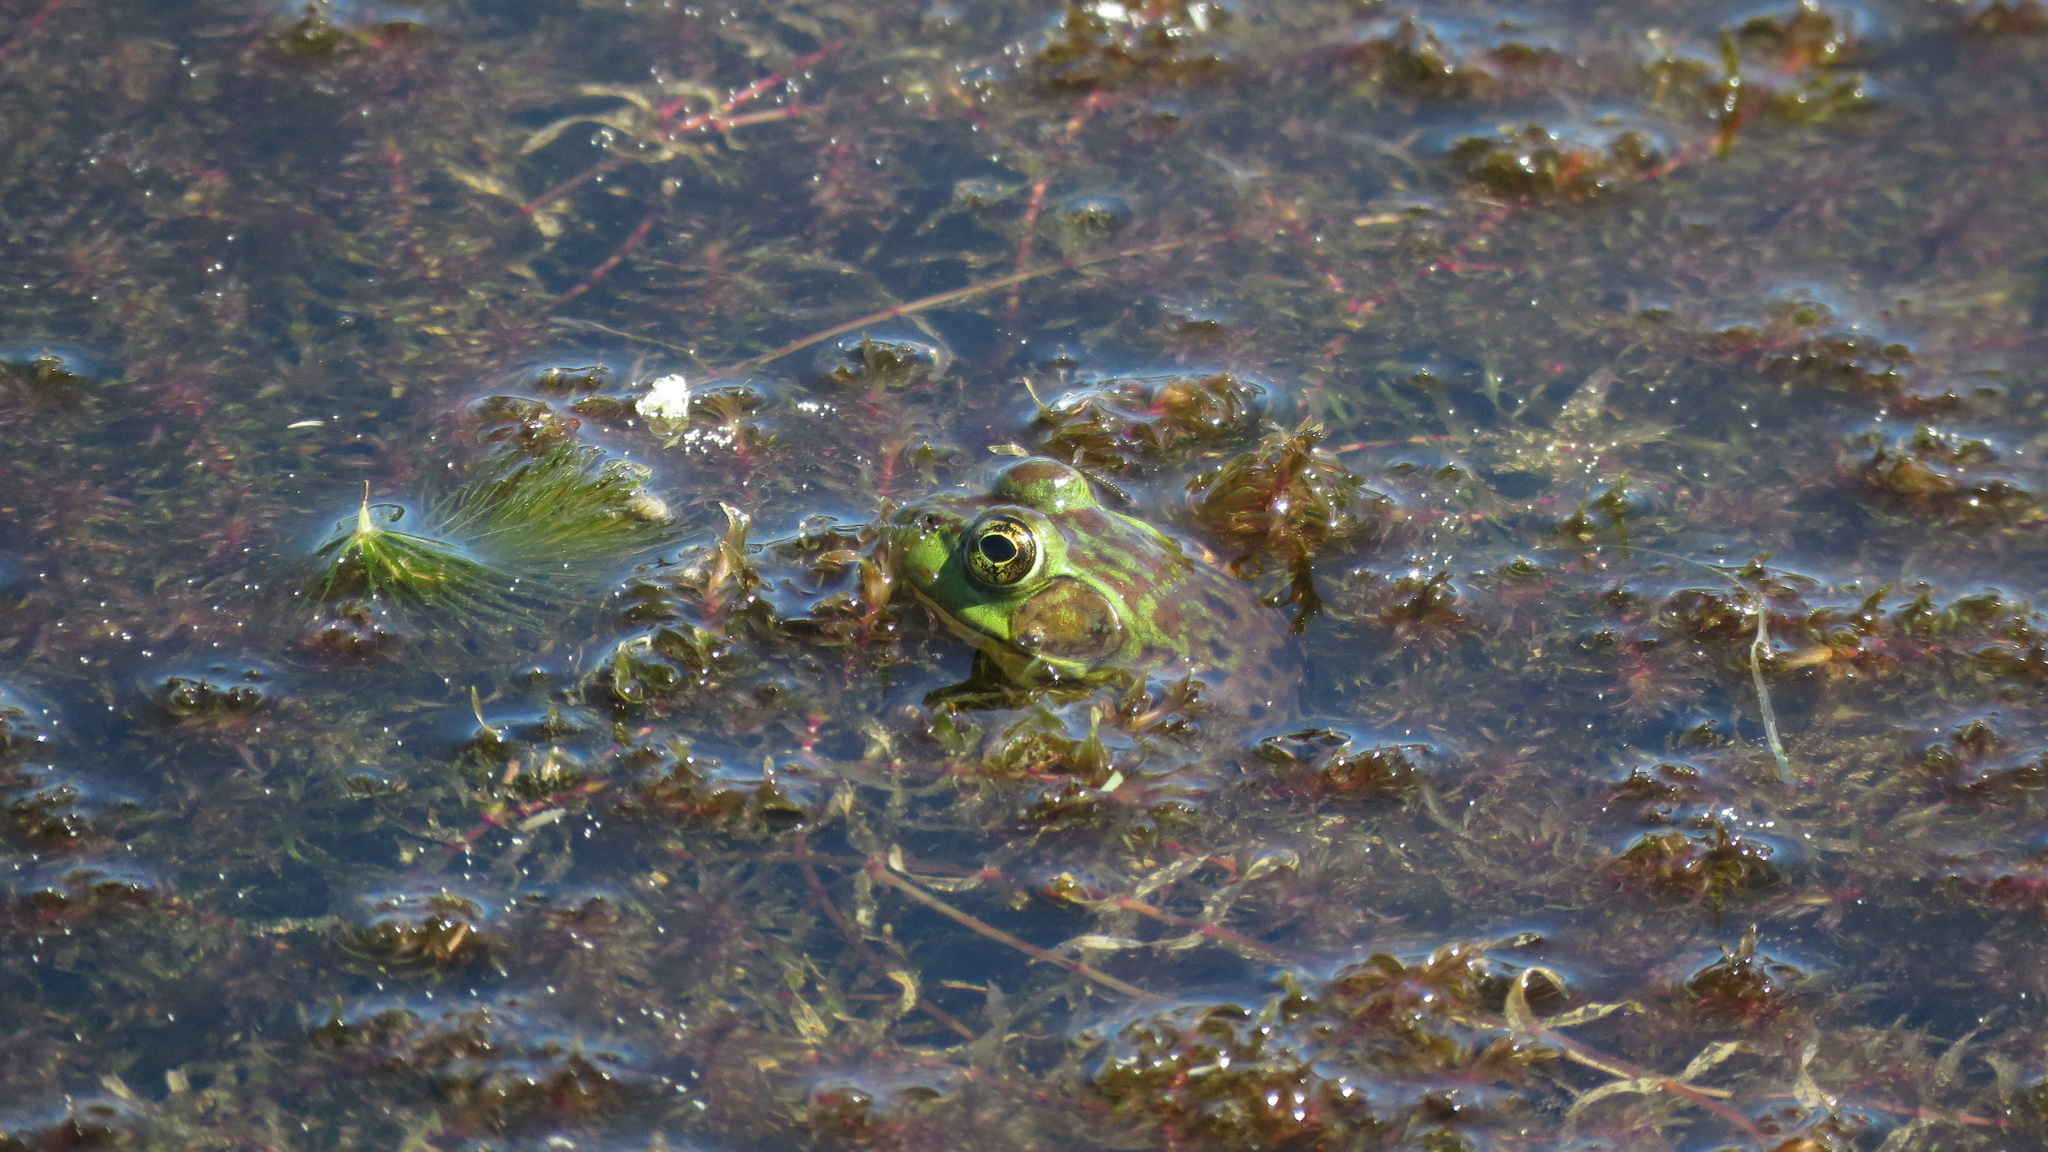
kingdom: Animalia
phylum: Chordata
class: Amphibia
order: Anura
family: Ranidae
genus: Lithobates
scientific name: Lithobates septentrionalis
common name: Mink frog
